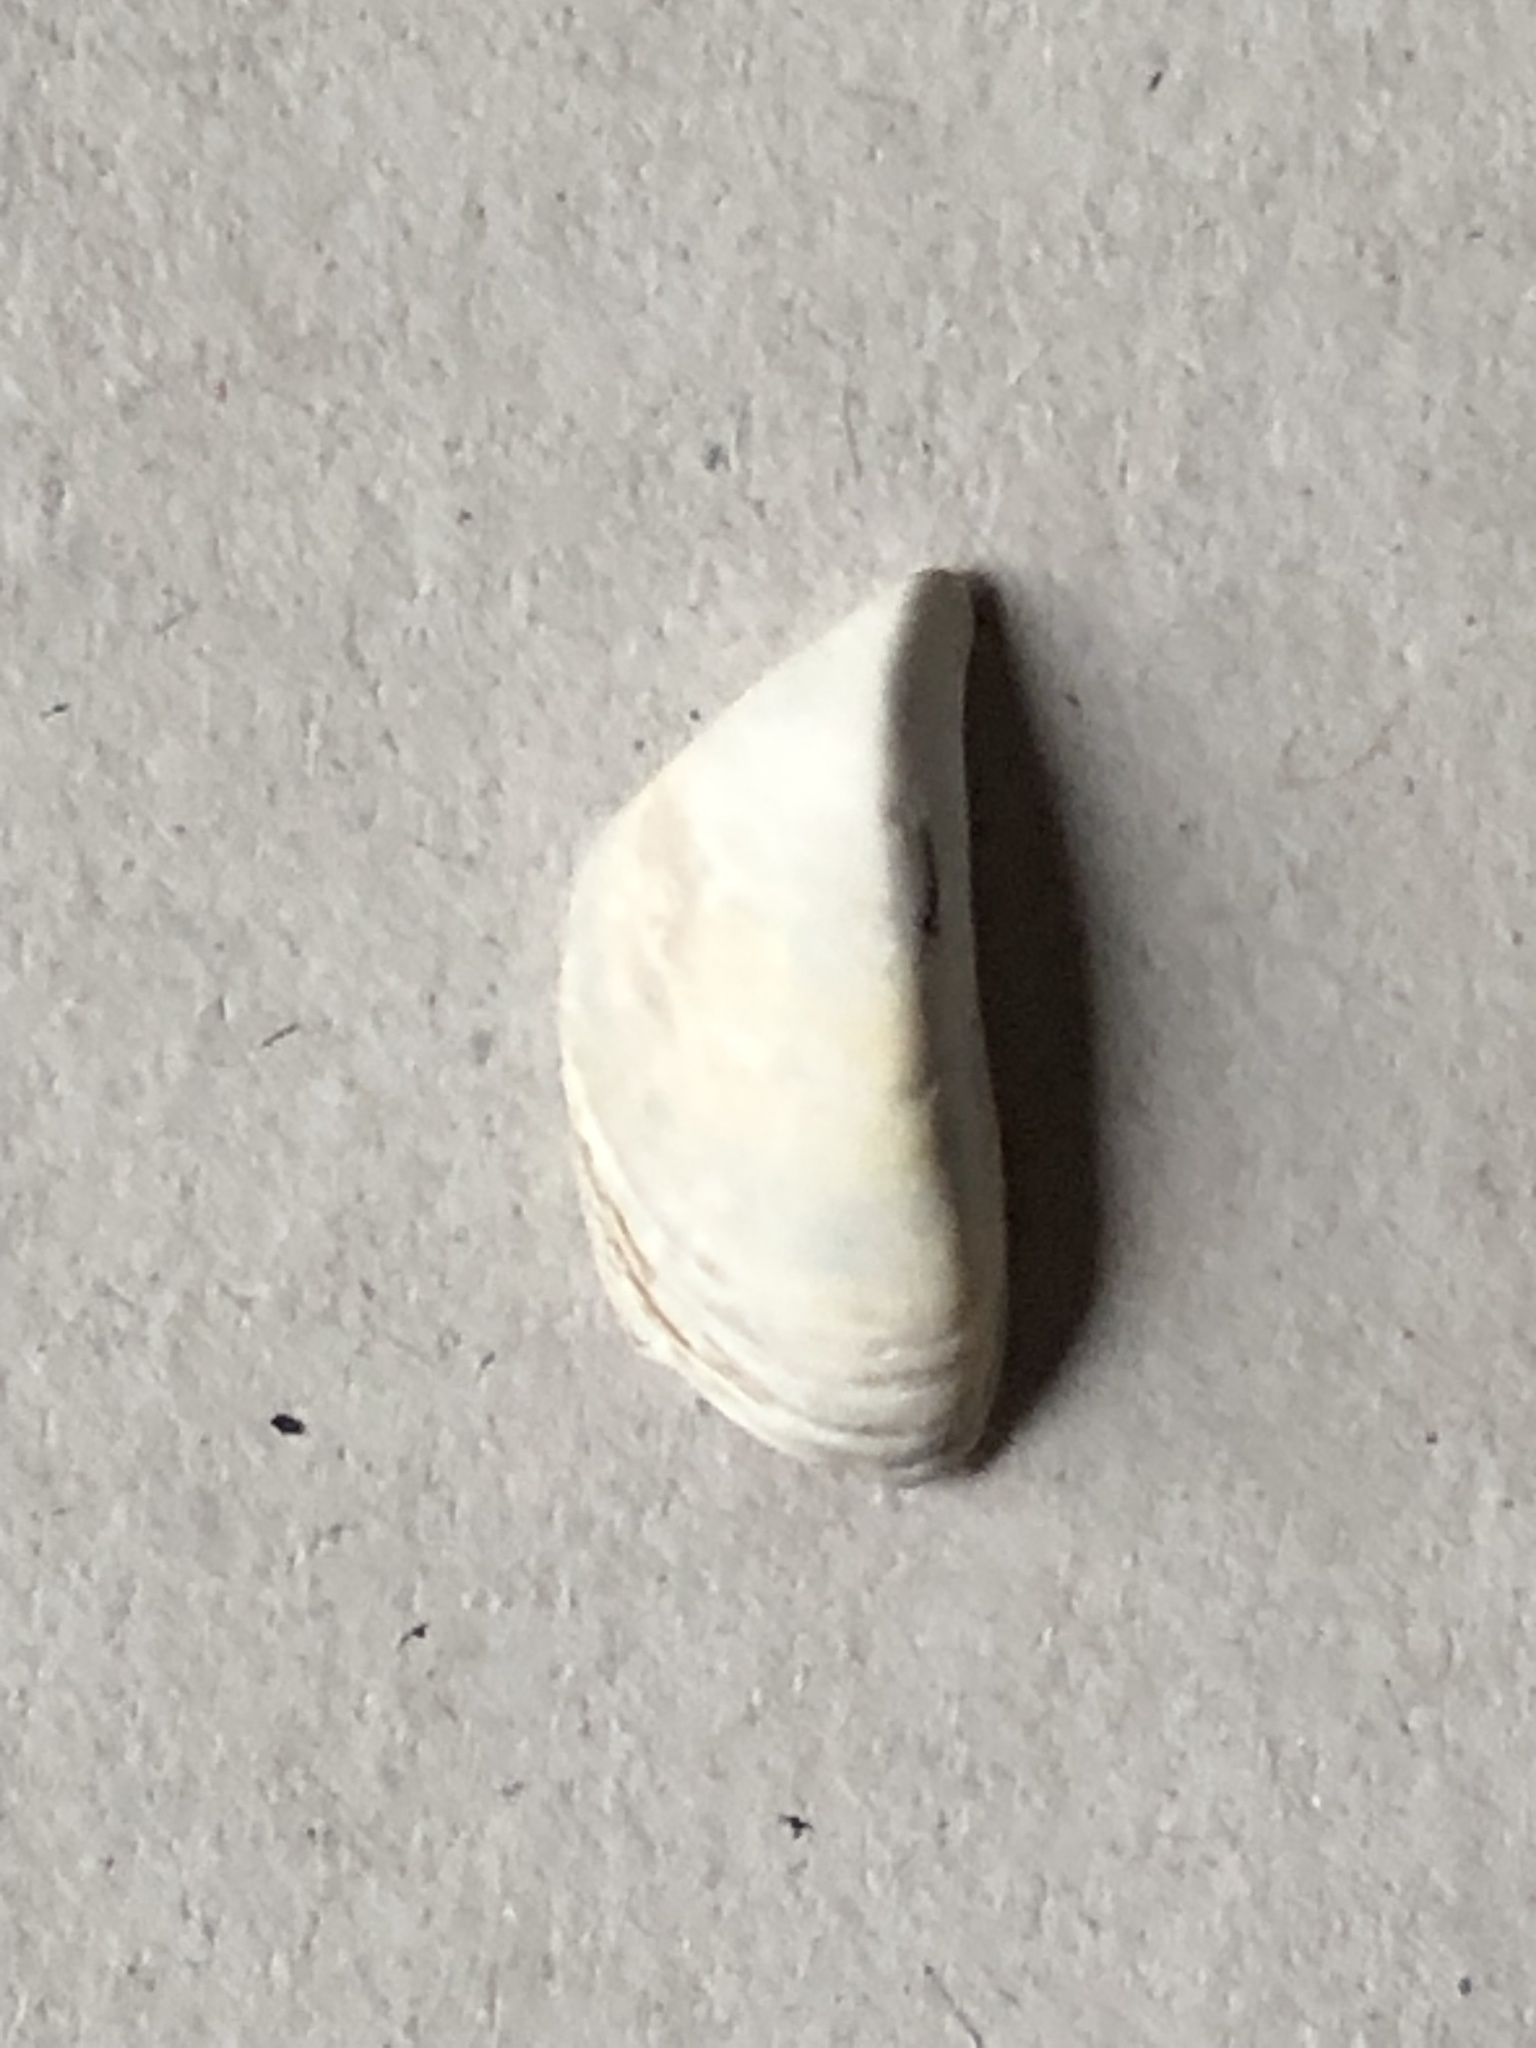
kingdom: Animalia
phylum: Mollusca
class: Bivalvia
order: Myida
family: Dreissenidae
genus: Dreissena
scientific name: Dreissena polymorpha
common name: Zebra mussel
